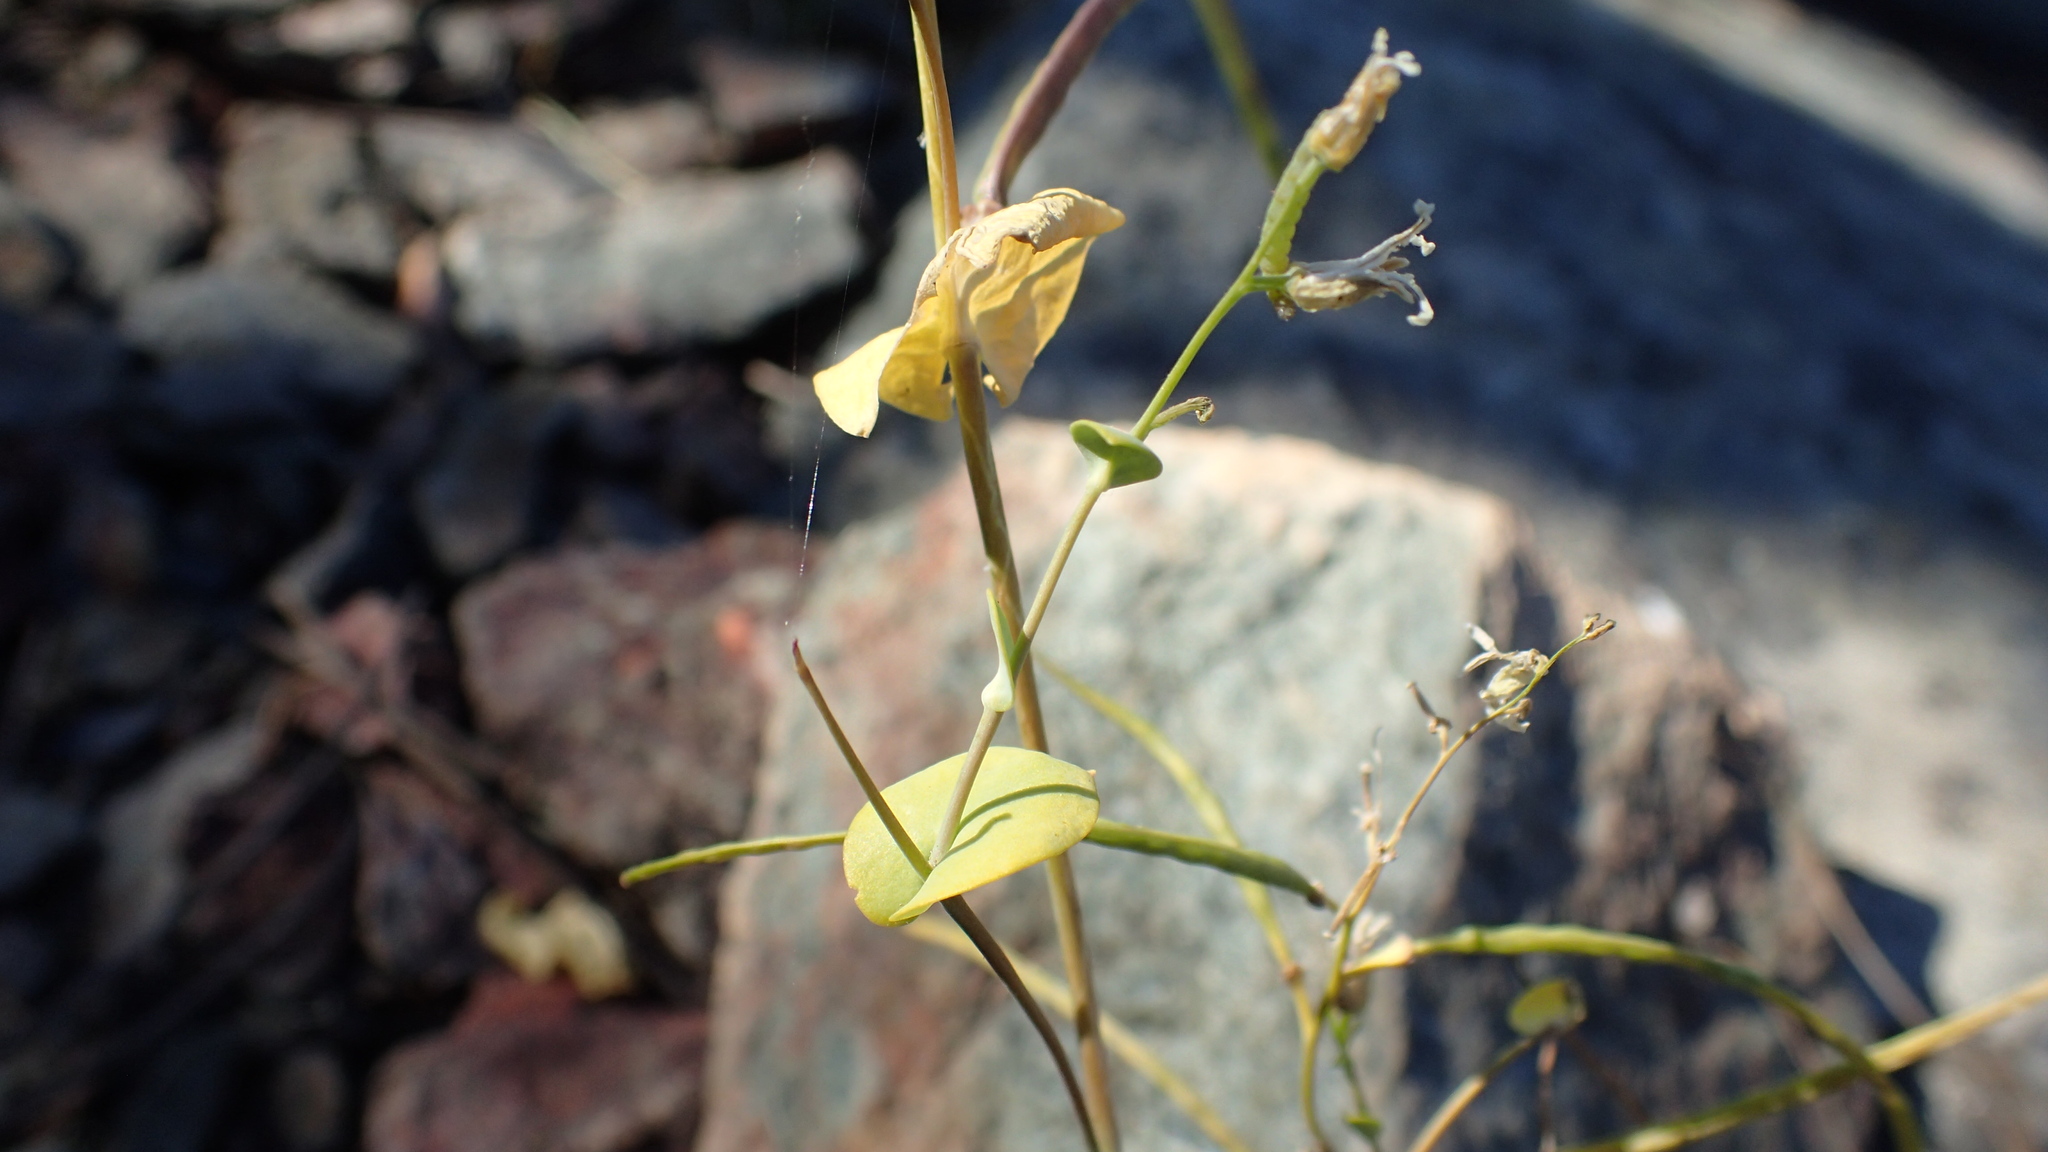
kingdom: Plantae
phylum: Tracheophyta
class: Magnoliopsida
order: Brassicales
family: Brassicaceae
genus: Streptanthus
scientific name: Streptanthus tortuosus
